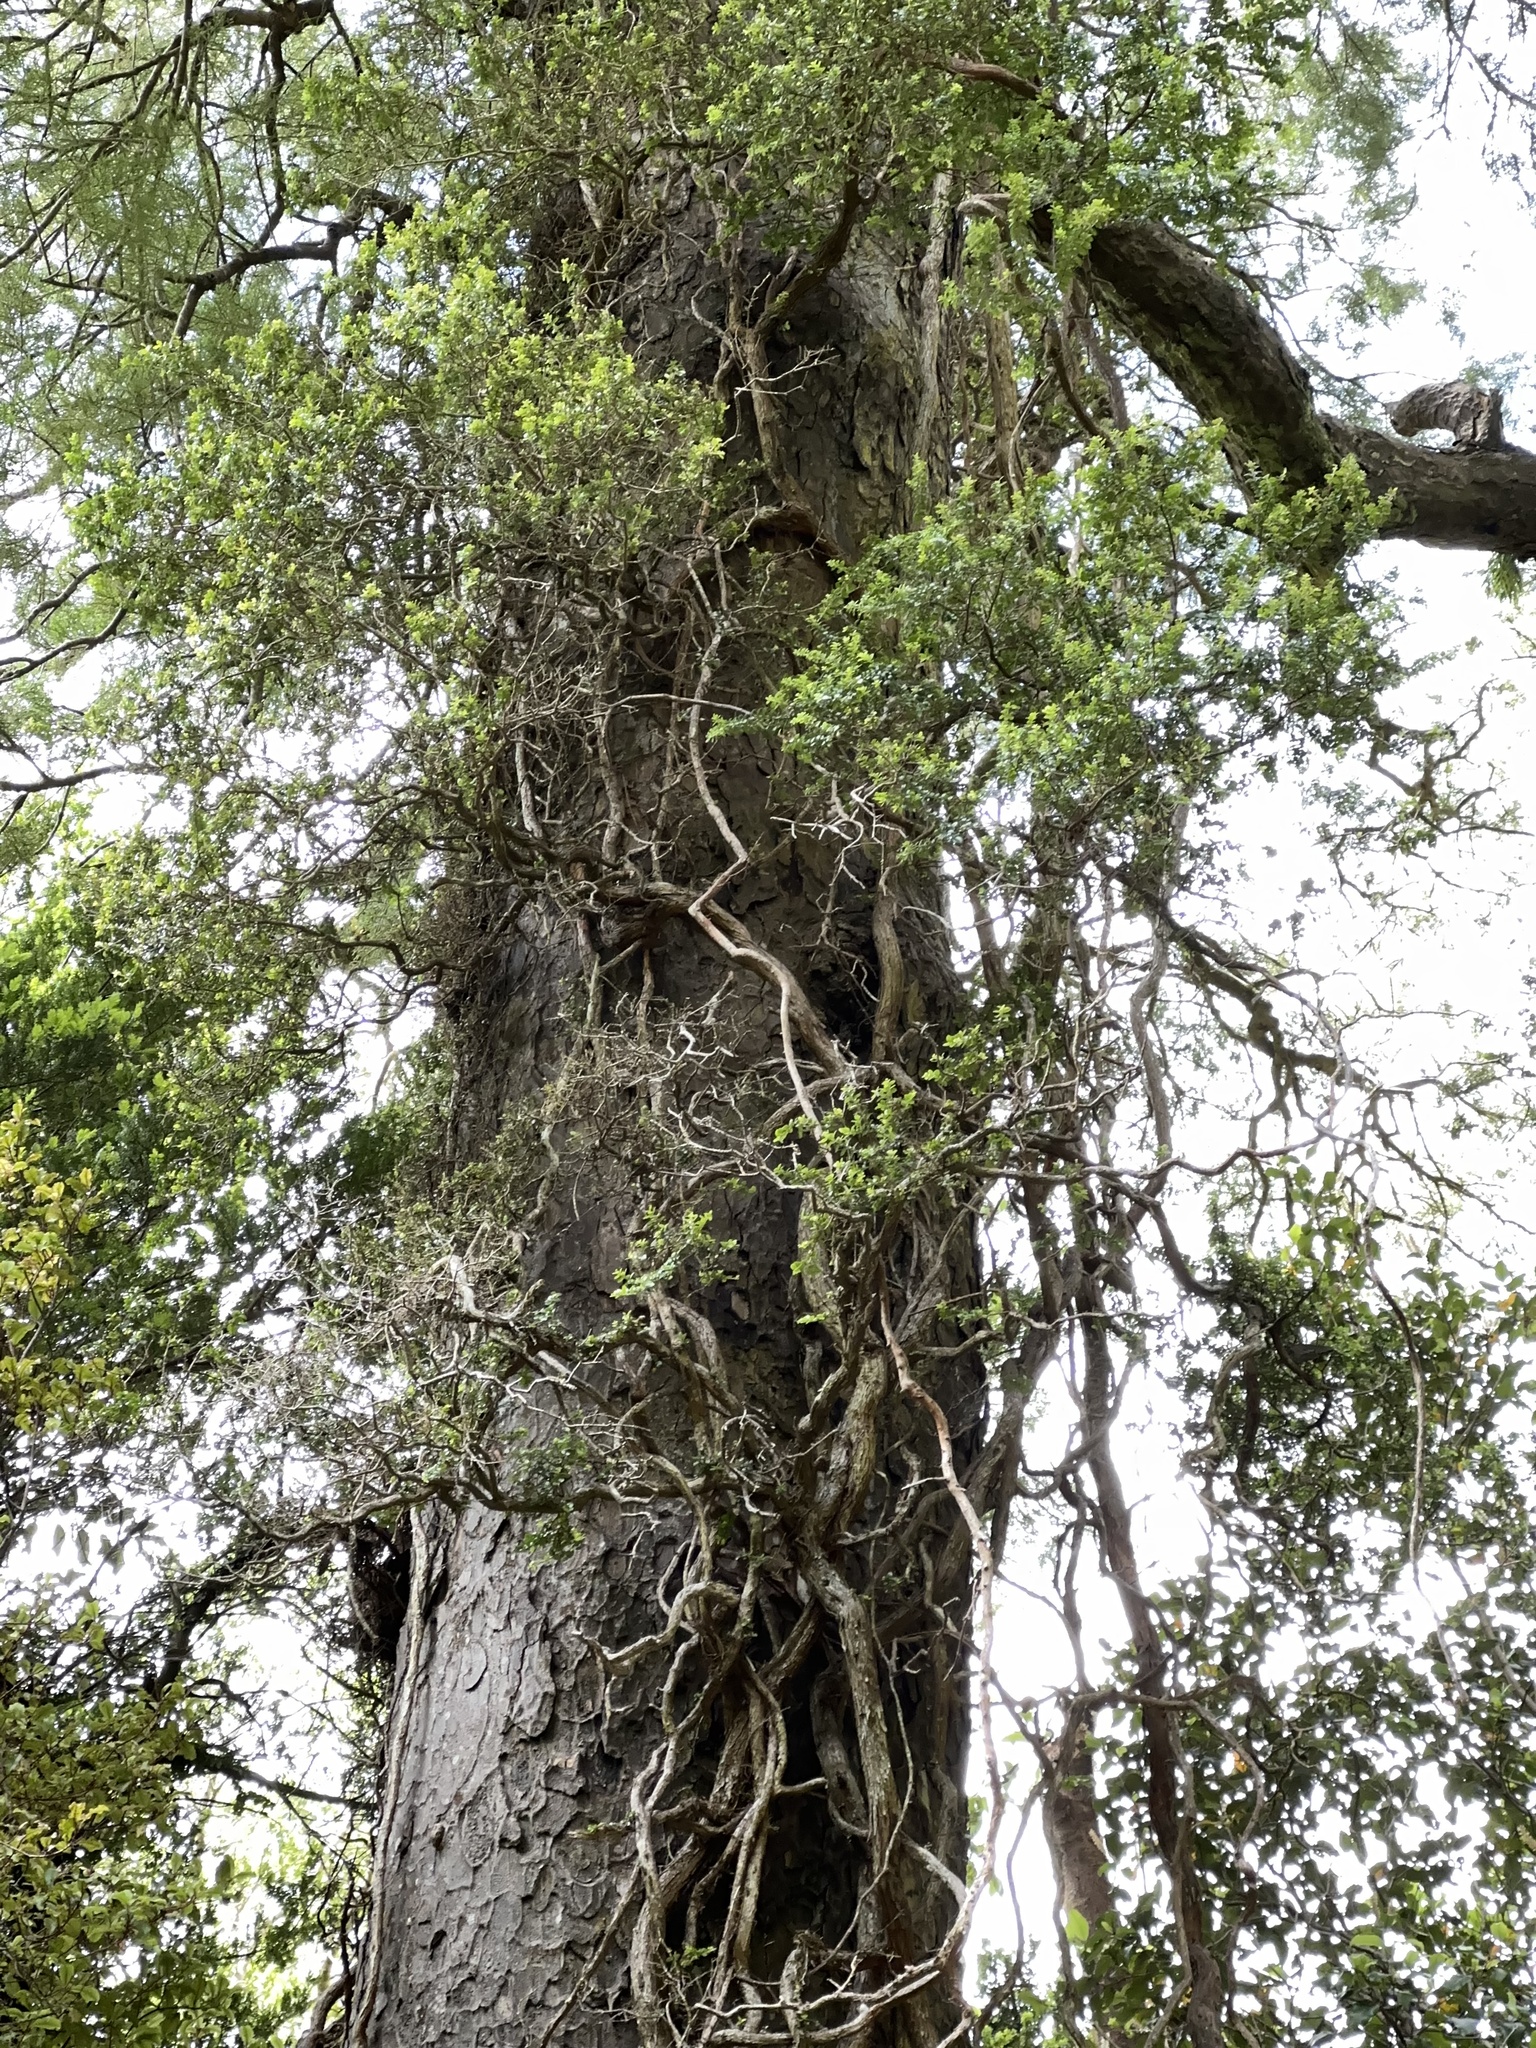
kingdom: Plantae
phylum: Tracheophyta
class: Magnoliopsida
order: Myrtales
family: Myrtaceae
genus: Metrosideros
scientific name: Metrosideros robusta
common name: Northern rata
